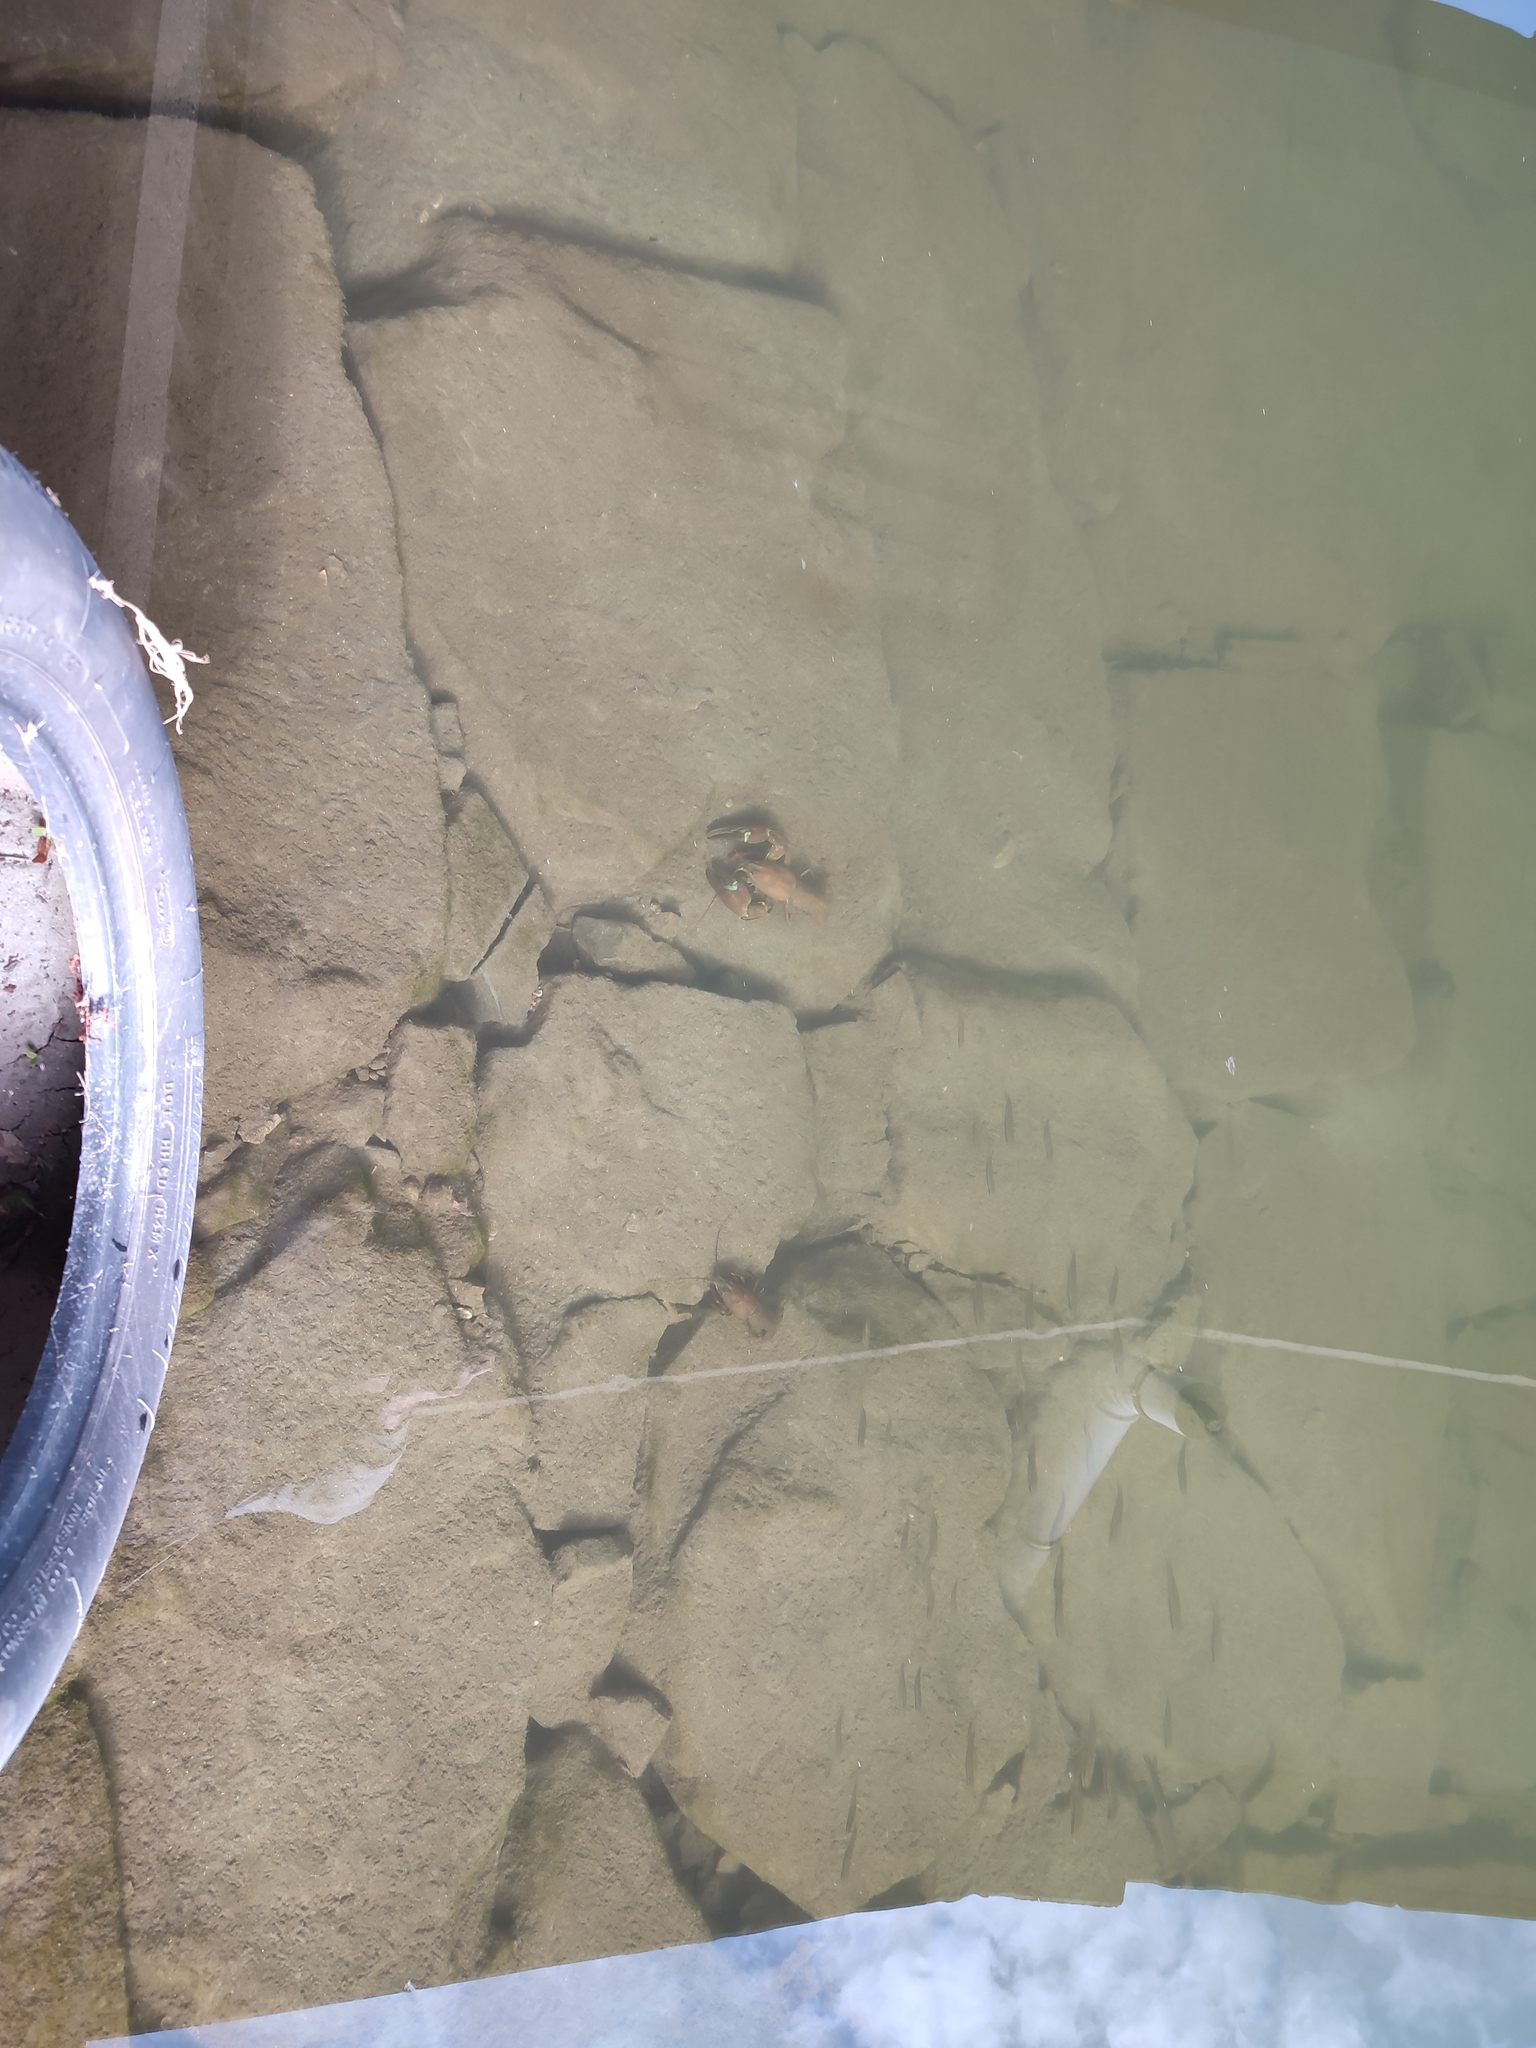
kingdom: Animalia
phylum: Arthropoda
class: Malacostraca
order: Decapoda
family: Astacidae
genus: Pacifastacus
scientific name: Pacifastacus leniusculus
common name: Signal crayfish
